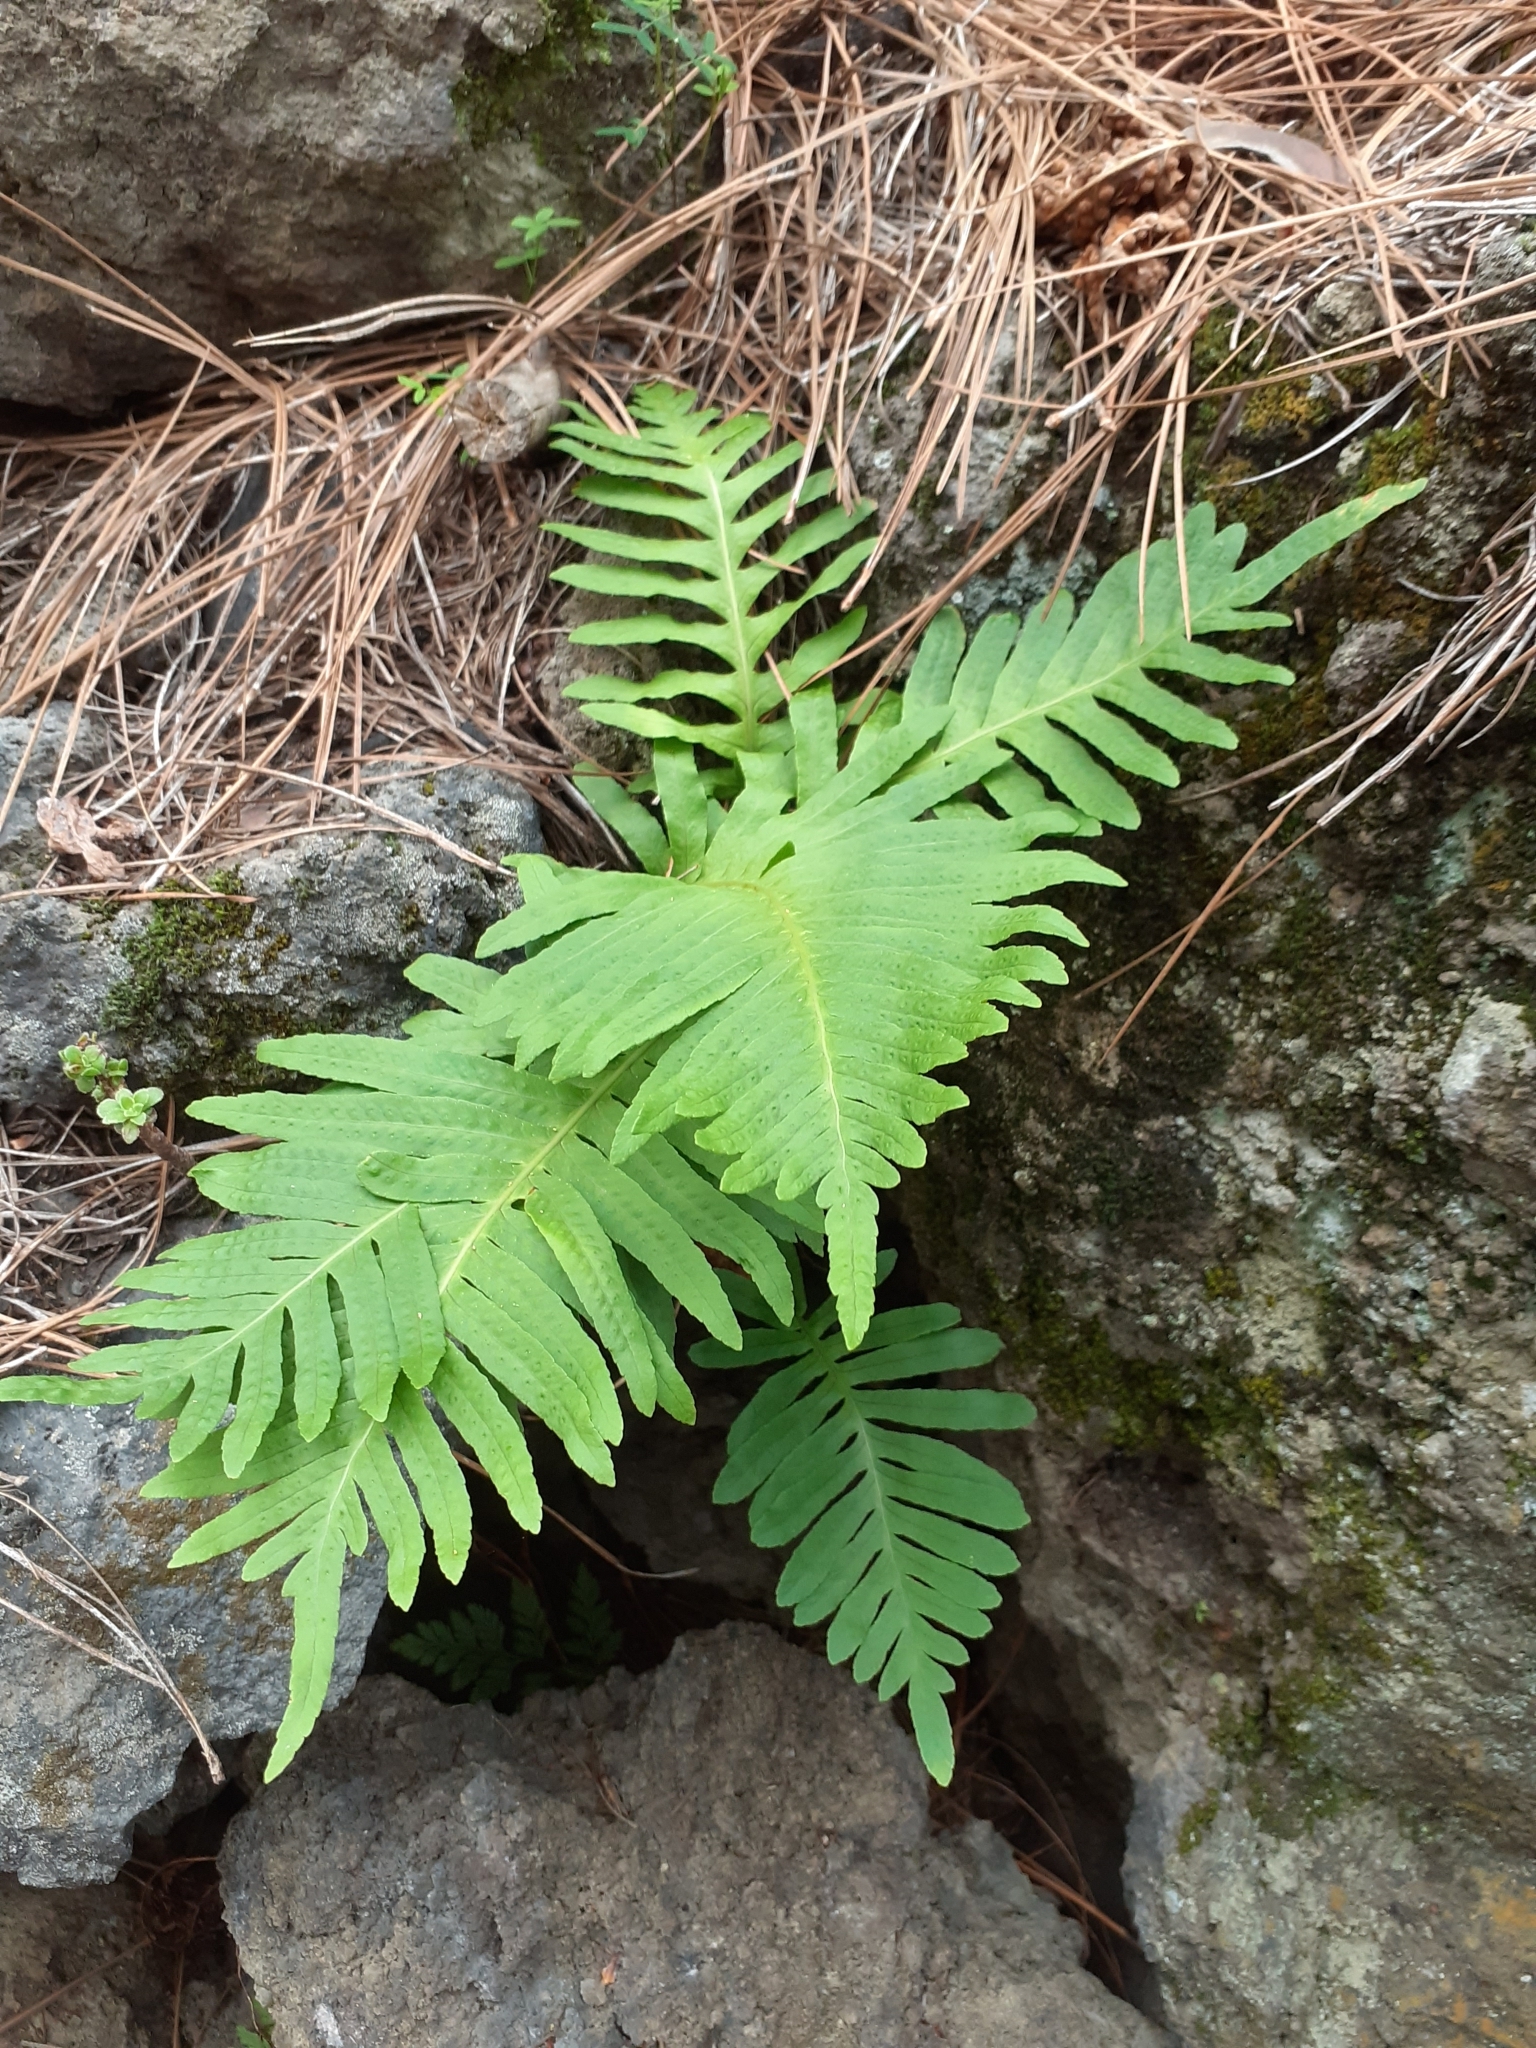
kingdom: Plantae
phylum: Tracheophyta
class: Polypodiopsida
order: Polypodiales
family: Polypodiaceae
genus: Polypodium
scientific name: Polypodium macaronesicum
